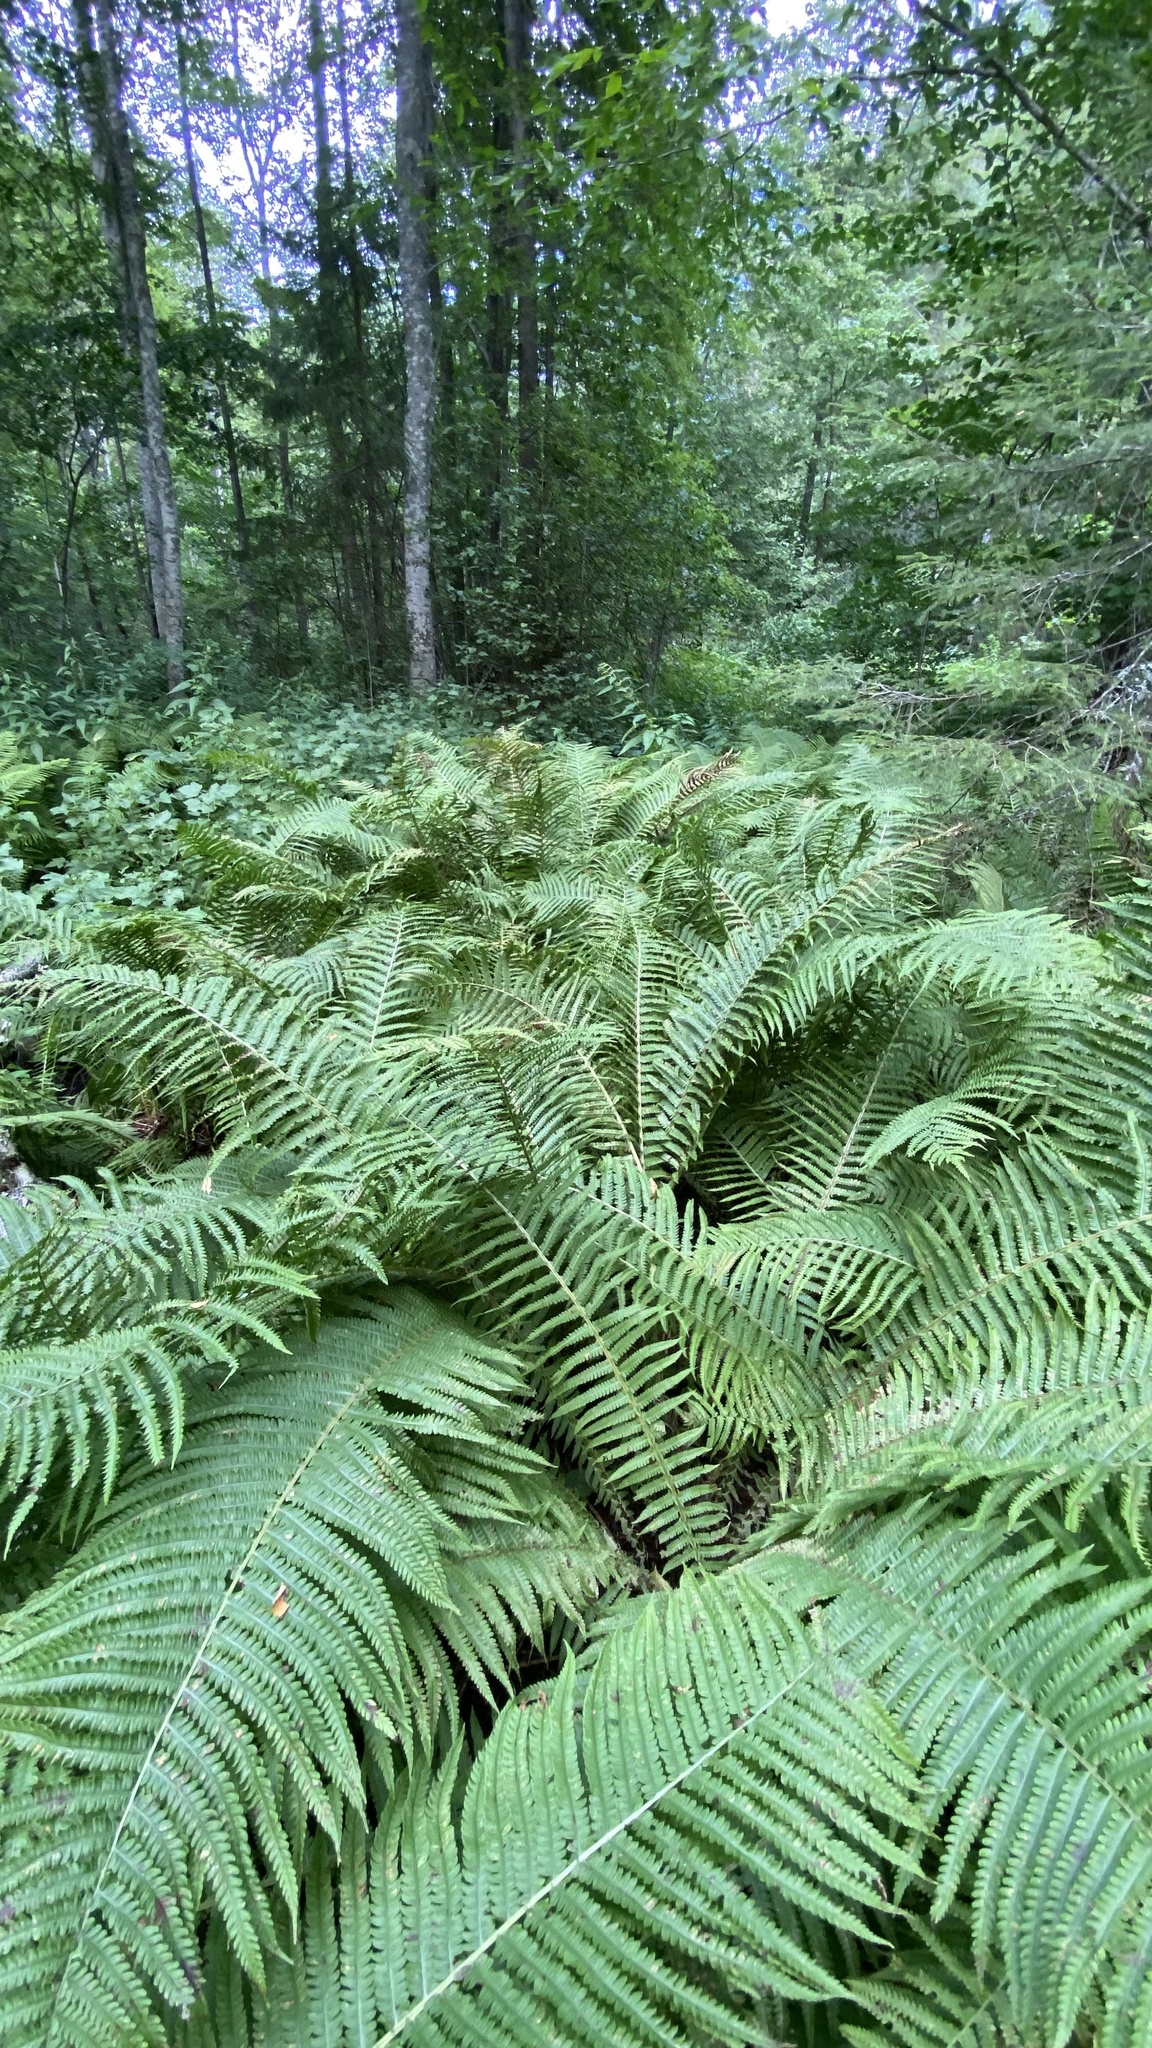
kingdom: Plantae
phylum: Tracheophyta
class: Polypodiopsida
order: Polypodiales
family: Onocleaceae
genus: Matteuccia
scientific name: Matteuccia struthiopteris
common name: Ostrich fern
